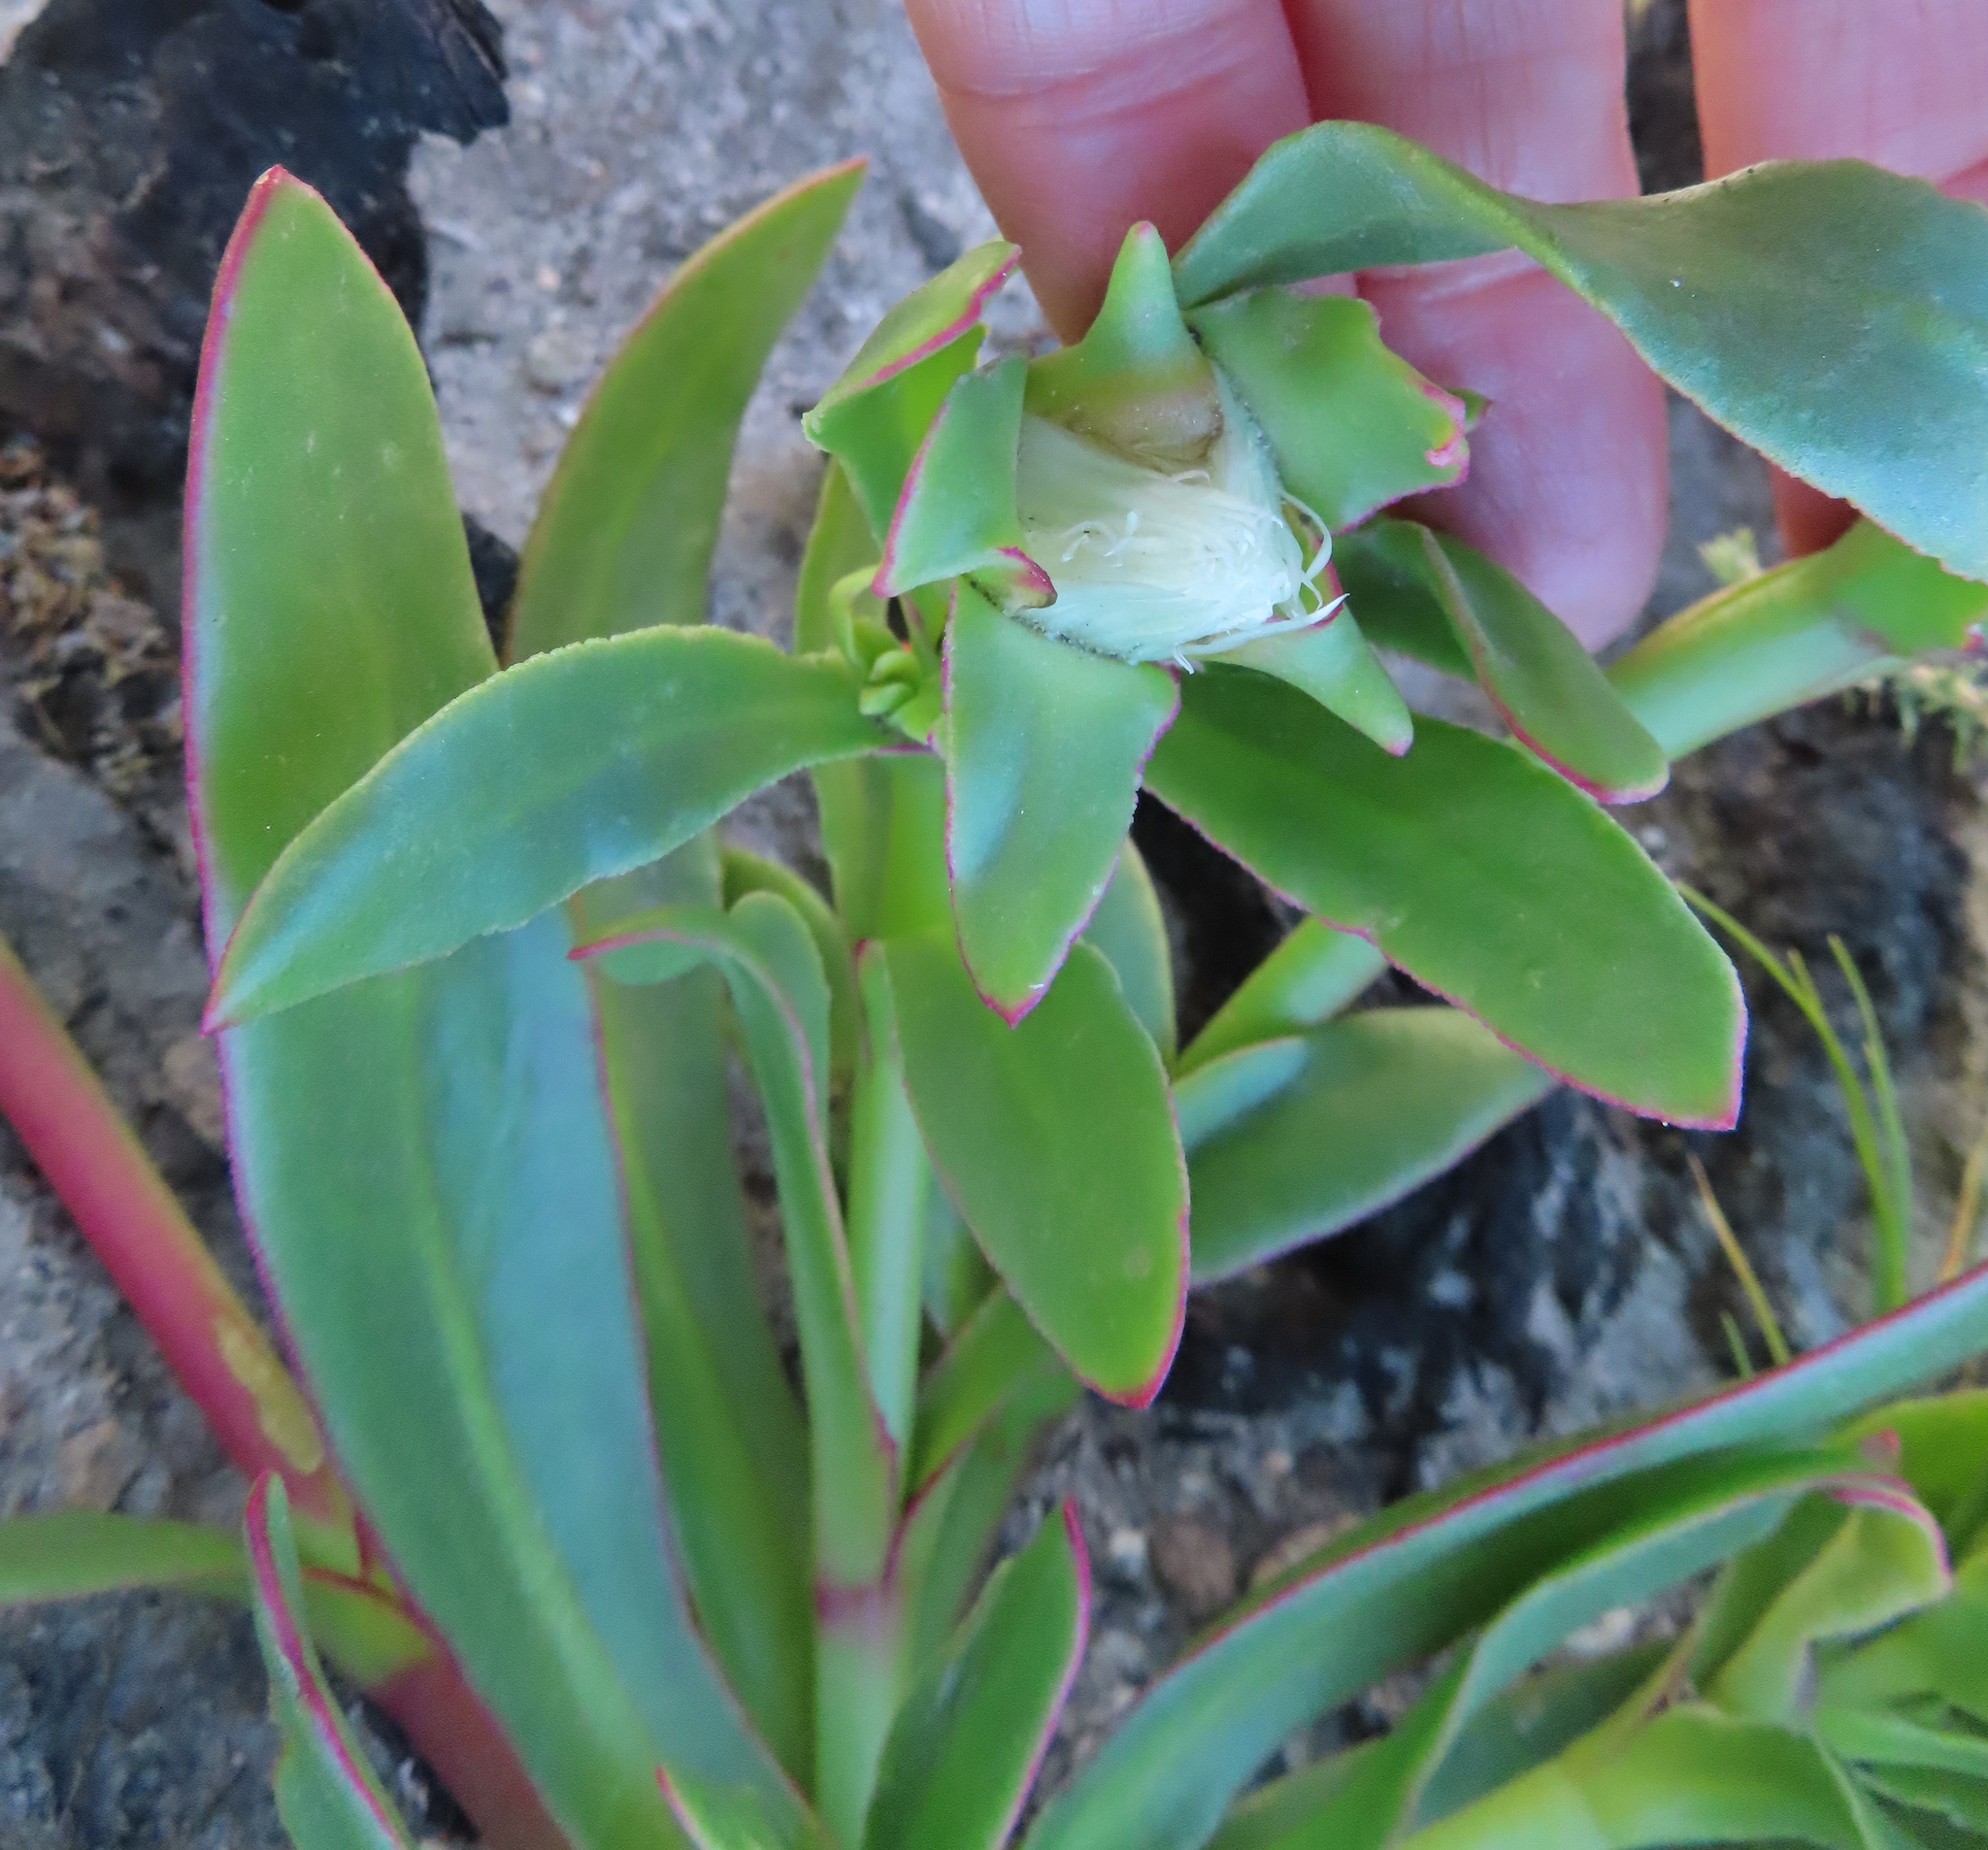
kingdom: Plantae
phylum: Tracheophyta
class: Magnoliopsida
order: Caryophyllales
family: Aizoaceae
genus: Skiatophytum
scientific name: Skiatophytum tripolium
